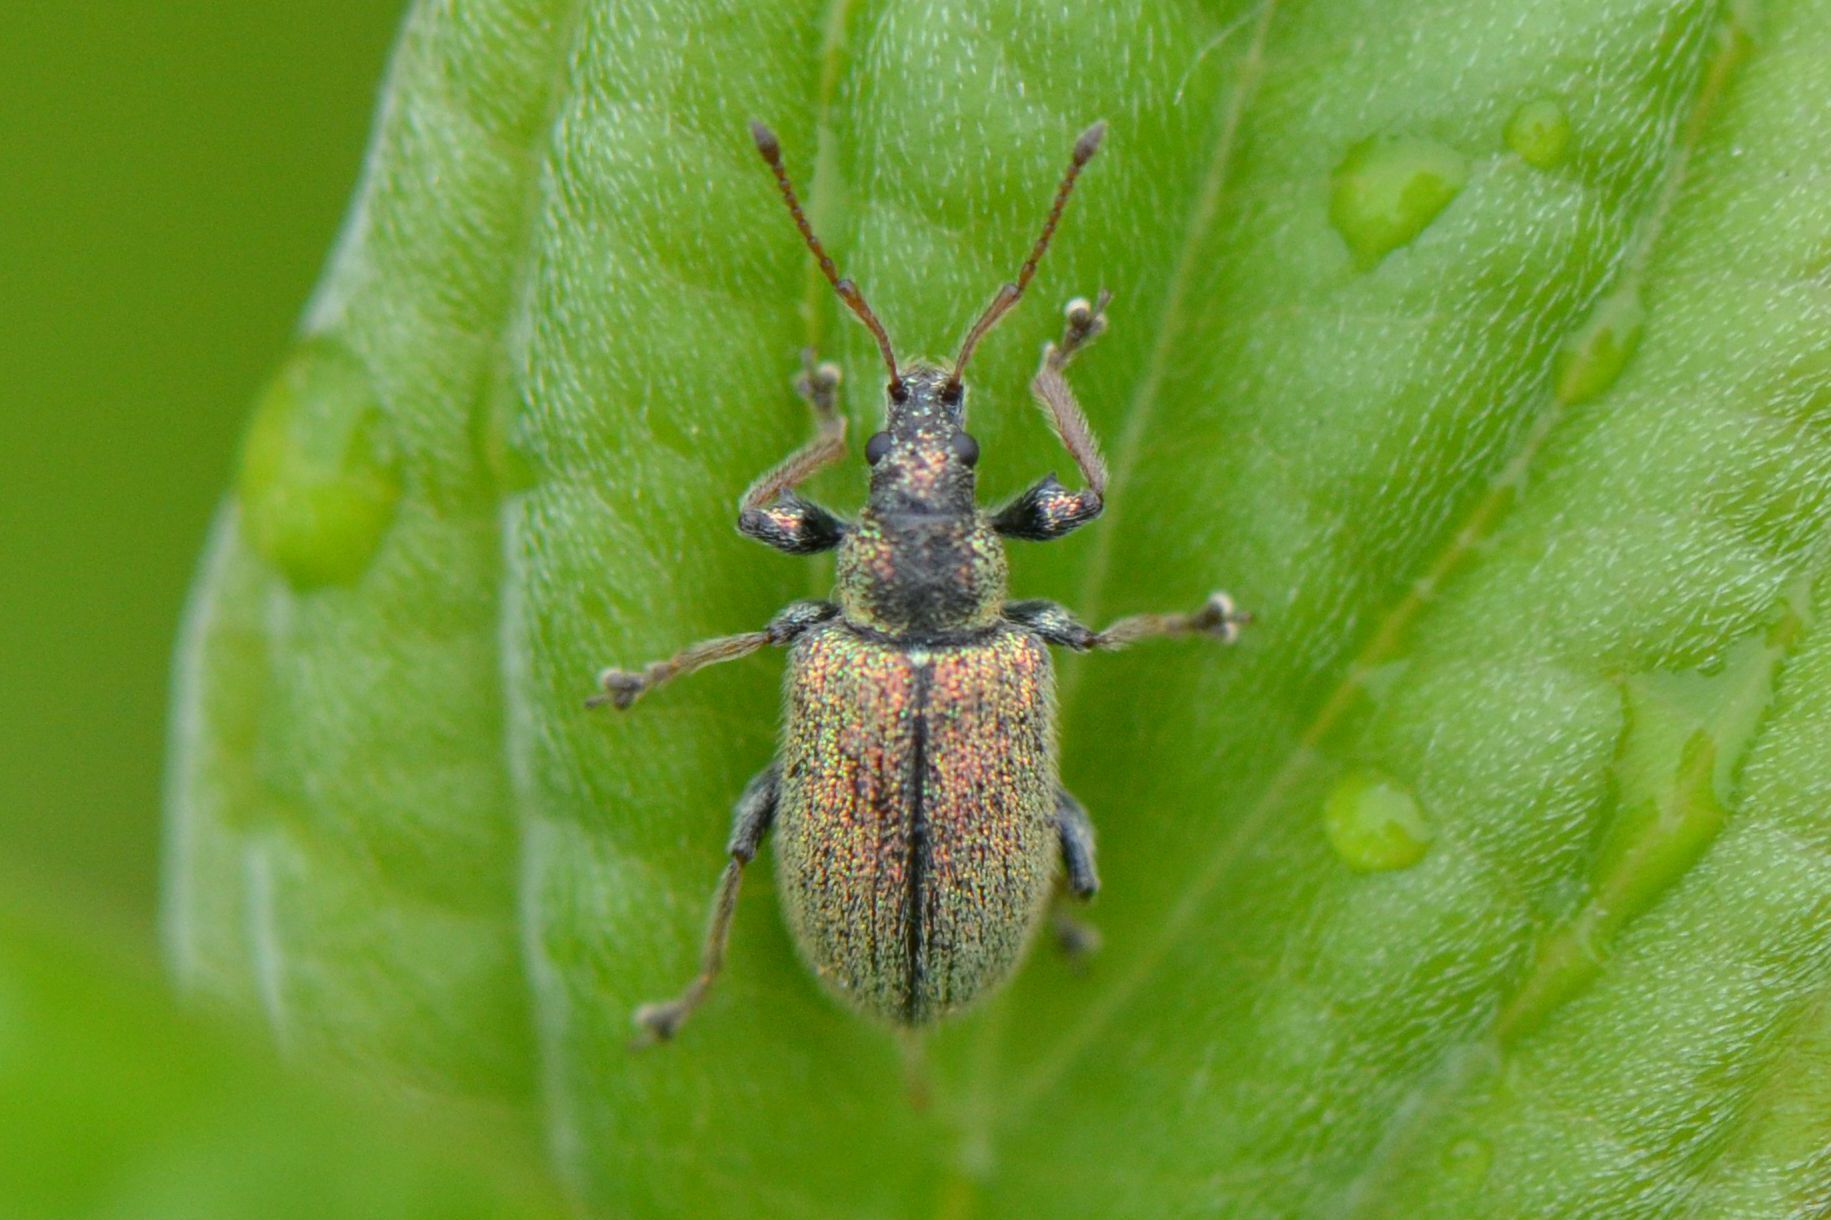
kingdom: Animalia
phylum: Arthropoda
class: Insecta
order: Coleoptera
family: Curculionidae
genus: Phyllobius
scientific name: Phyllobius betulinus
